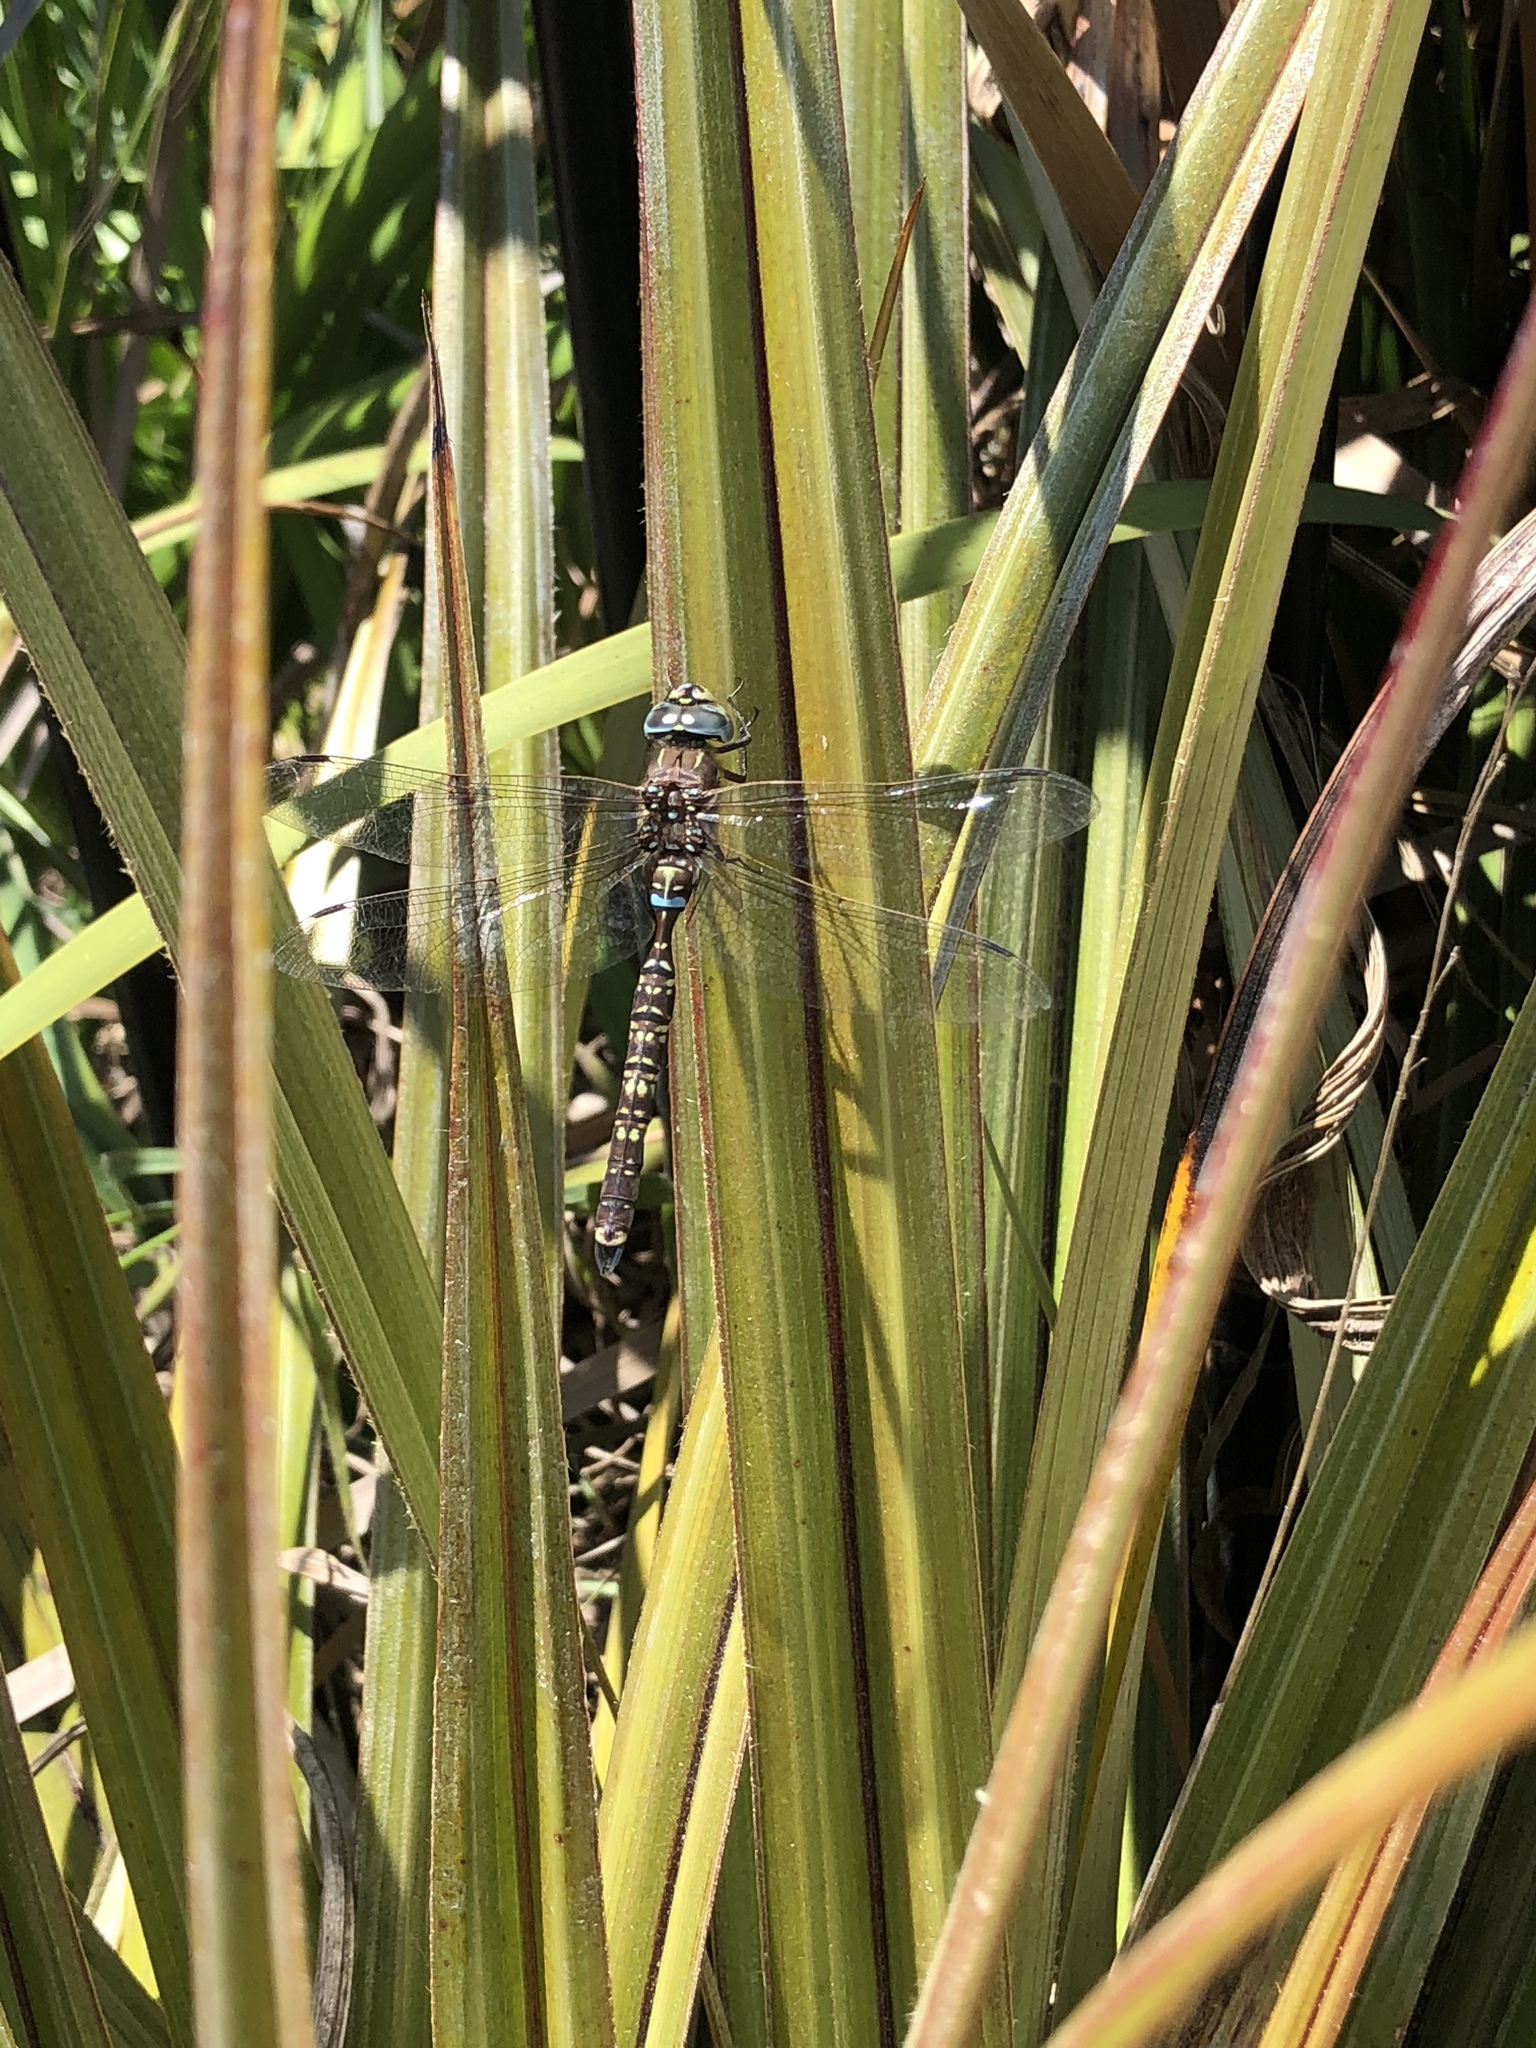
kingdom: Animalia
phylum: Arthropoda
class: Insecta
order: Odonata
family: Aeshnidae
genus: Aeshna
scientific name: Aeshna brevistyla
